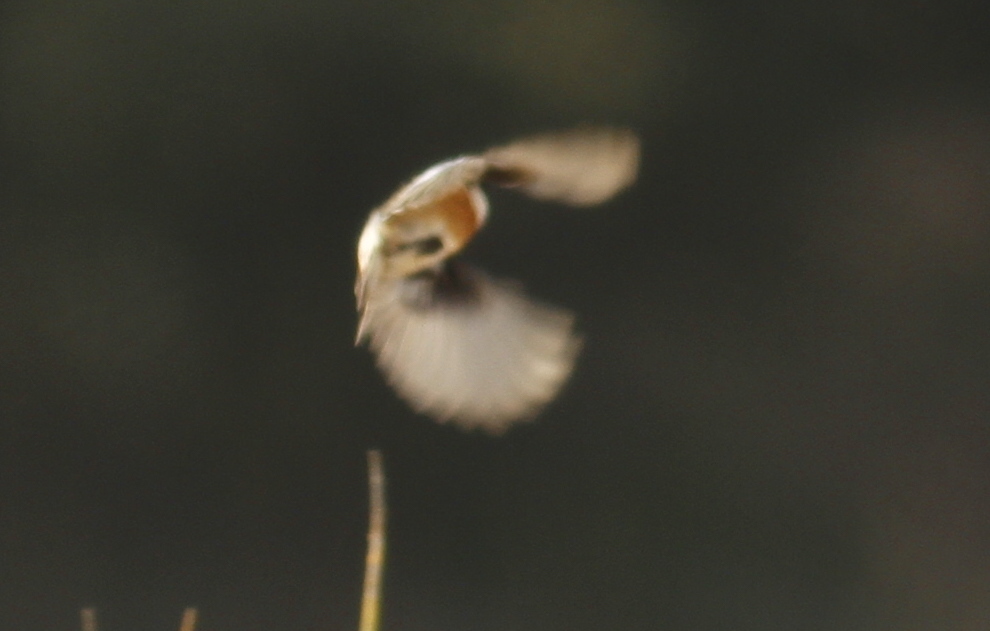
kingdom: Animalia
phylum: Chordata
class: Aves
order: Passeriformes
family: Muscicapidae
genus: Saxicola
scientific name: Saxicola rubicola
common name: European stonechat
